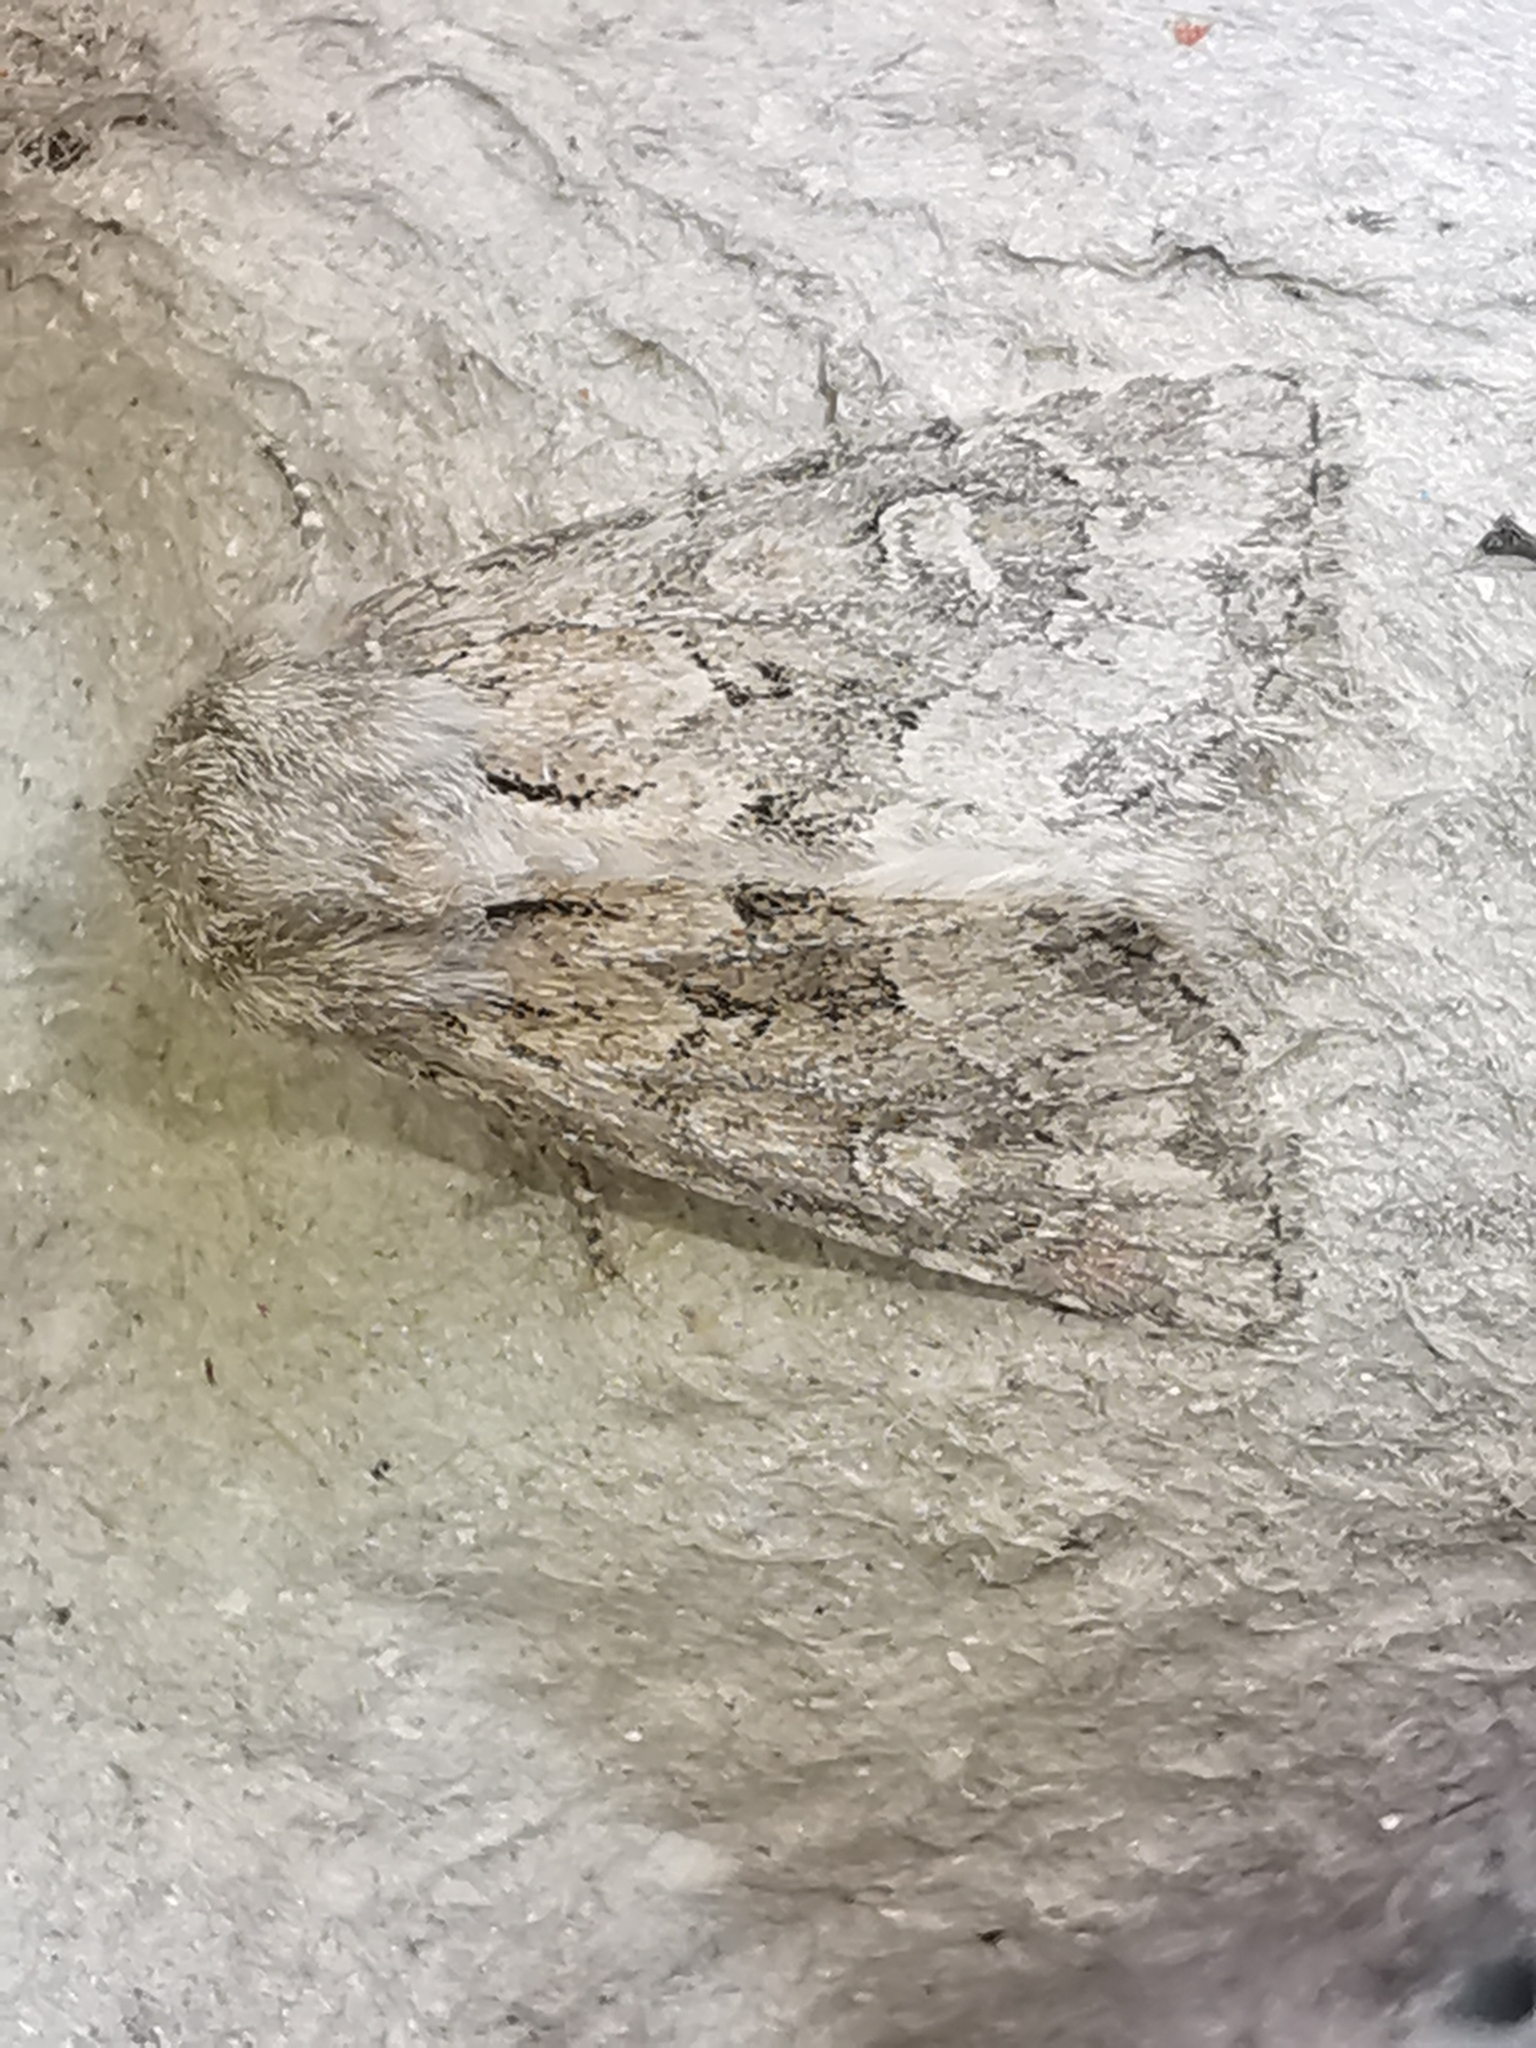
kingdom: Animalia
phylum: Arthropoda
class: Insecta
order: Lepidoptera
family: Noctuidae
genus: Luperina
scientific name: Luperina testacea
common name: Flounced rustic
